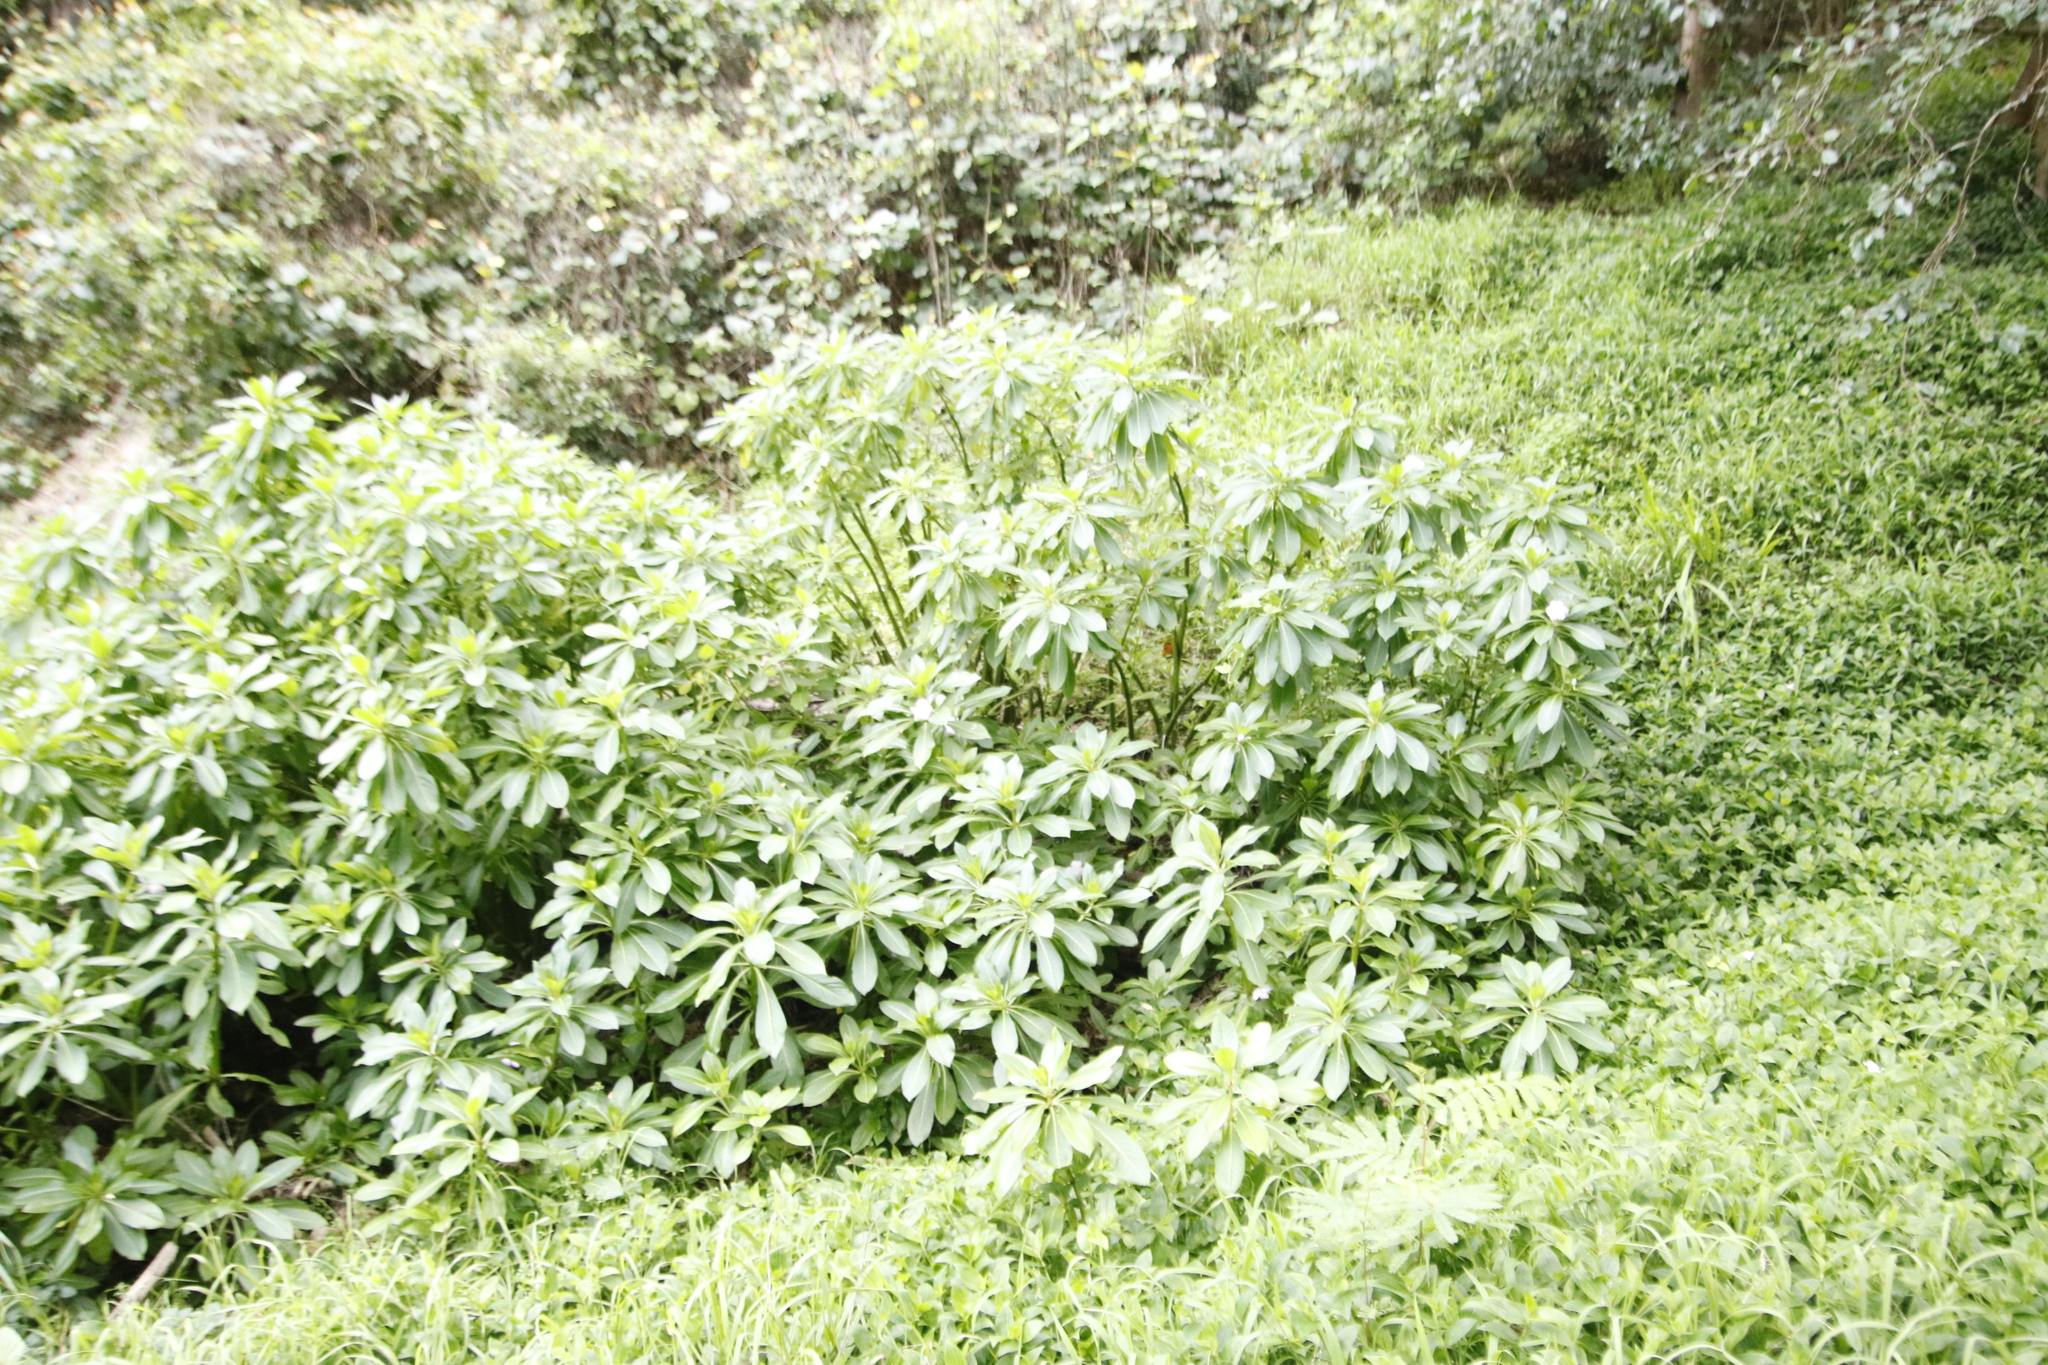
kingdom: Plantae
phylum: Tracheophyta
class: Magnoliopsida
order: Ericales
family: Balsaminaceae
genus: Impatiens
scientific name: Impatiens sodenii
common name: Oliver's touch-me-not
